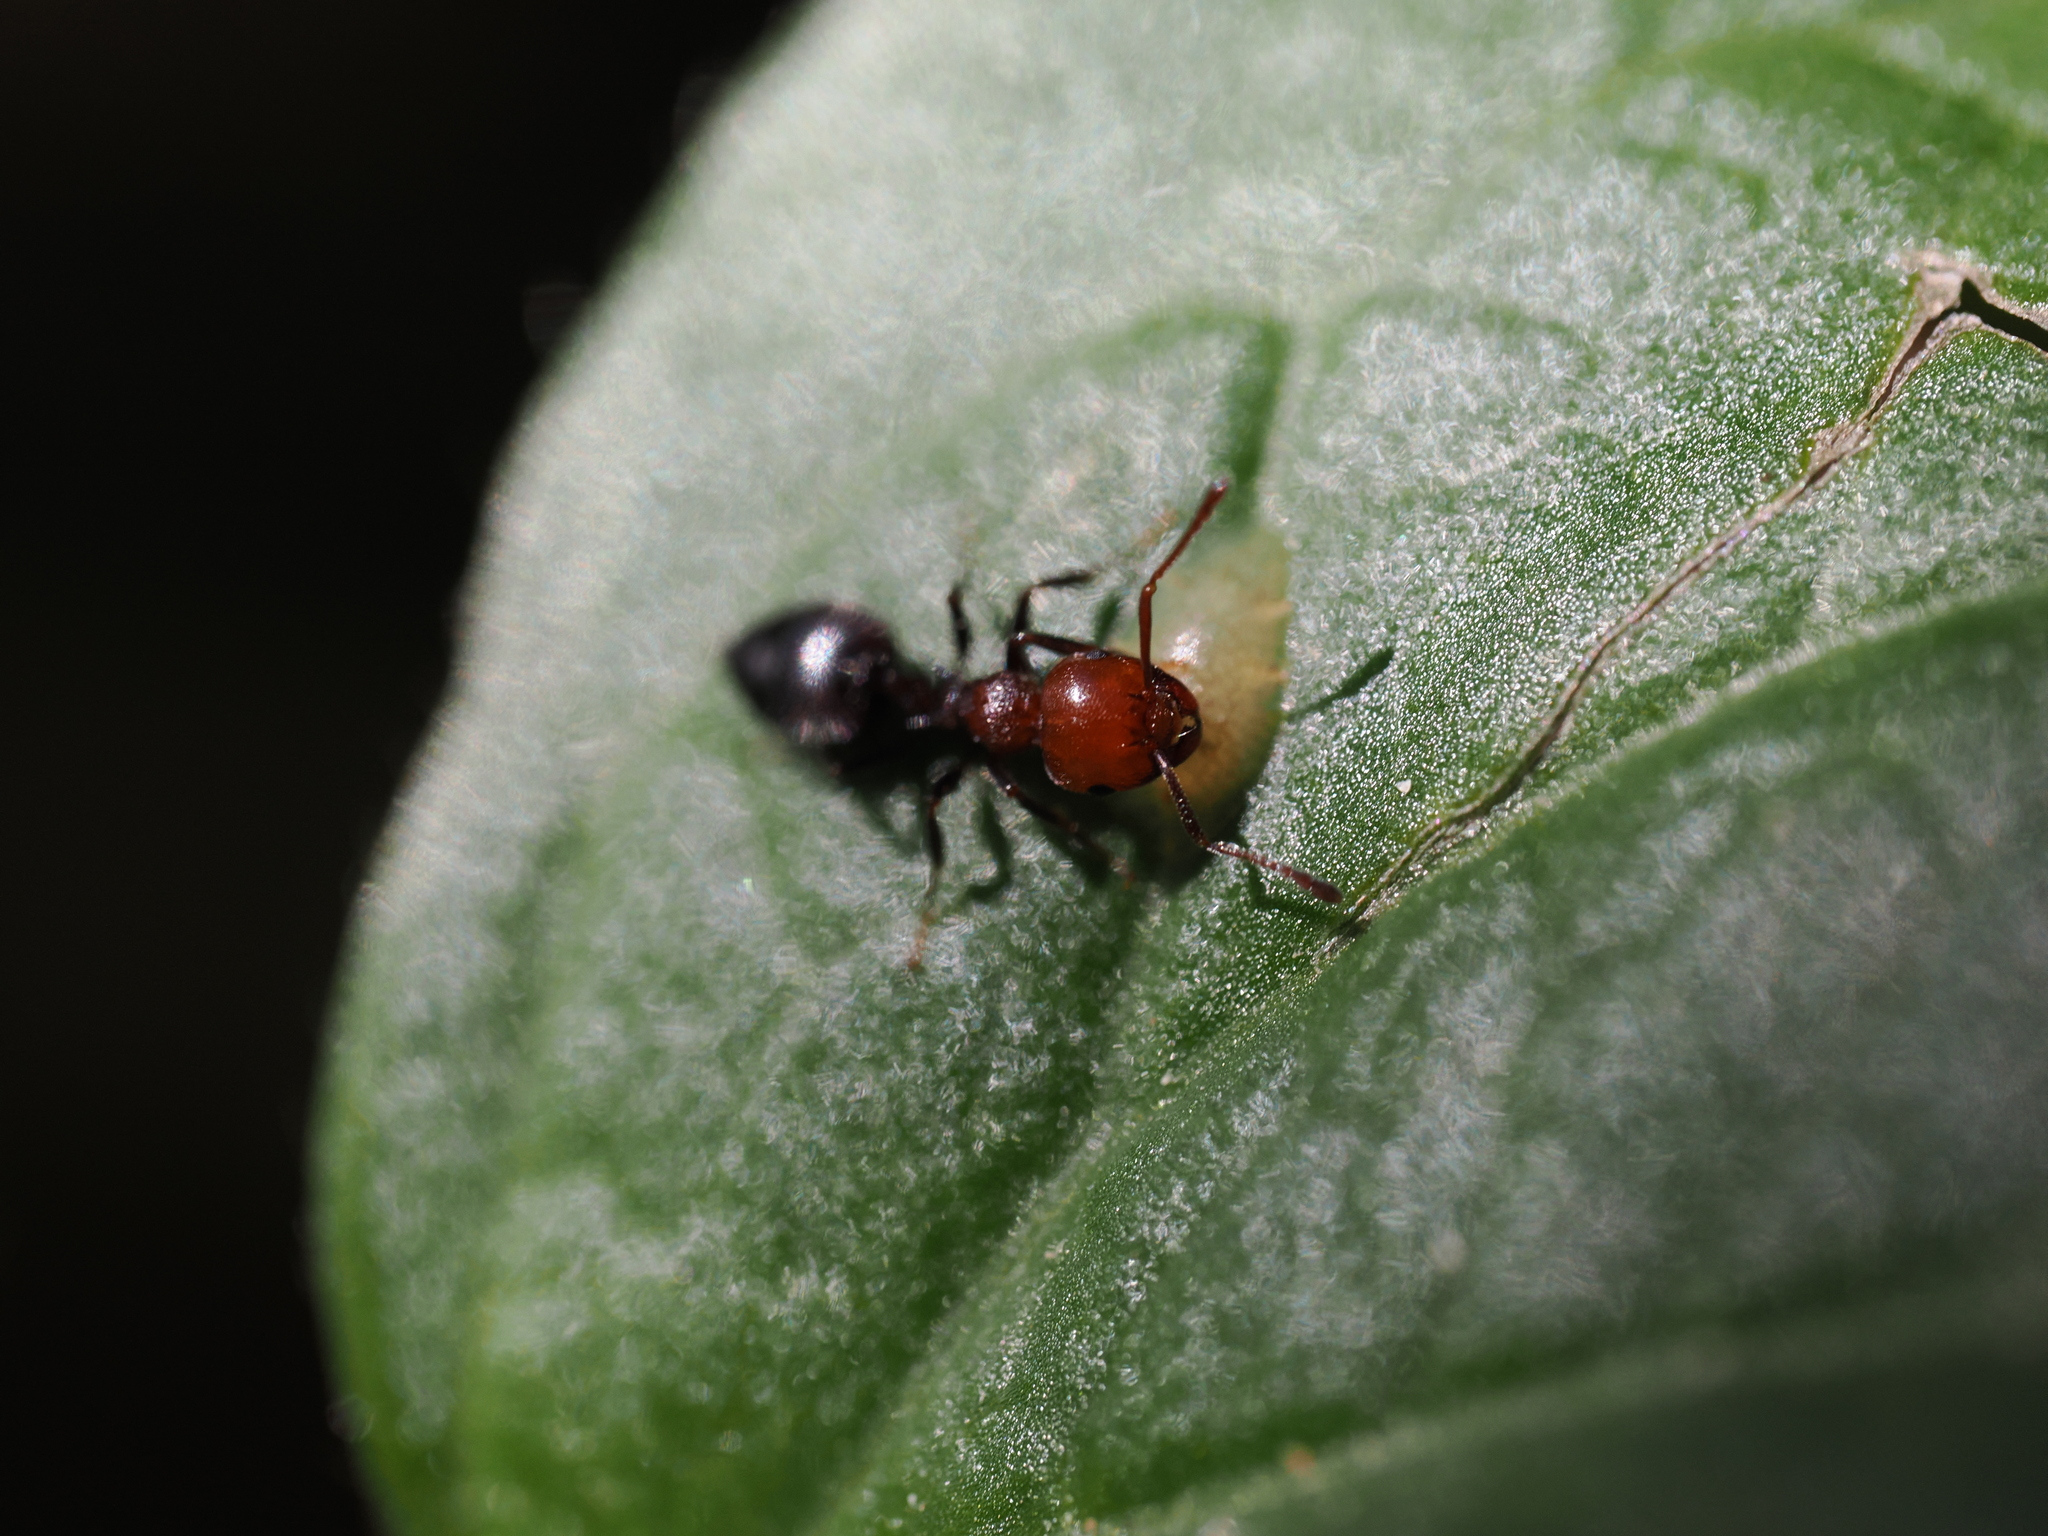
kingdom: Animalia
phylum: Arthropoda
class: Insecta
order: Hymenoptera
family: Formicidae
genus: Crematogaster
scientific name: Crematogaster scutellaris
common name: Fourmi du liège
